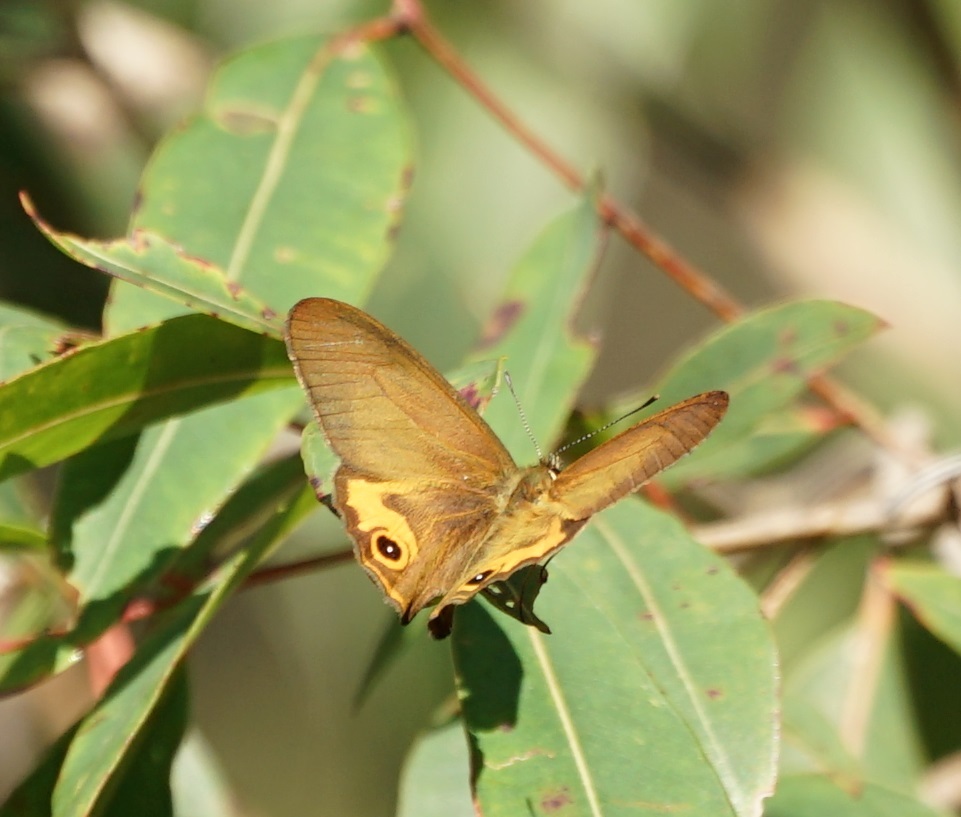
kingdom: Animalia
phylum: Arthropoda
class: Insecta
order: Lepidoptera
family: Nymphalidae
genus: Hypocysta
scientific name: Hypocysta metirius
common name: Brown ringlet
